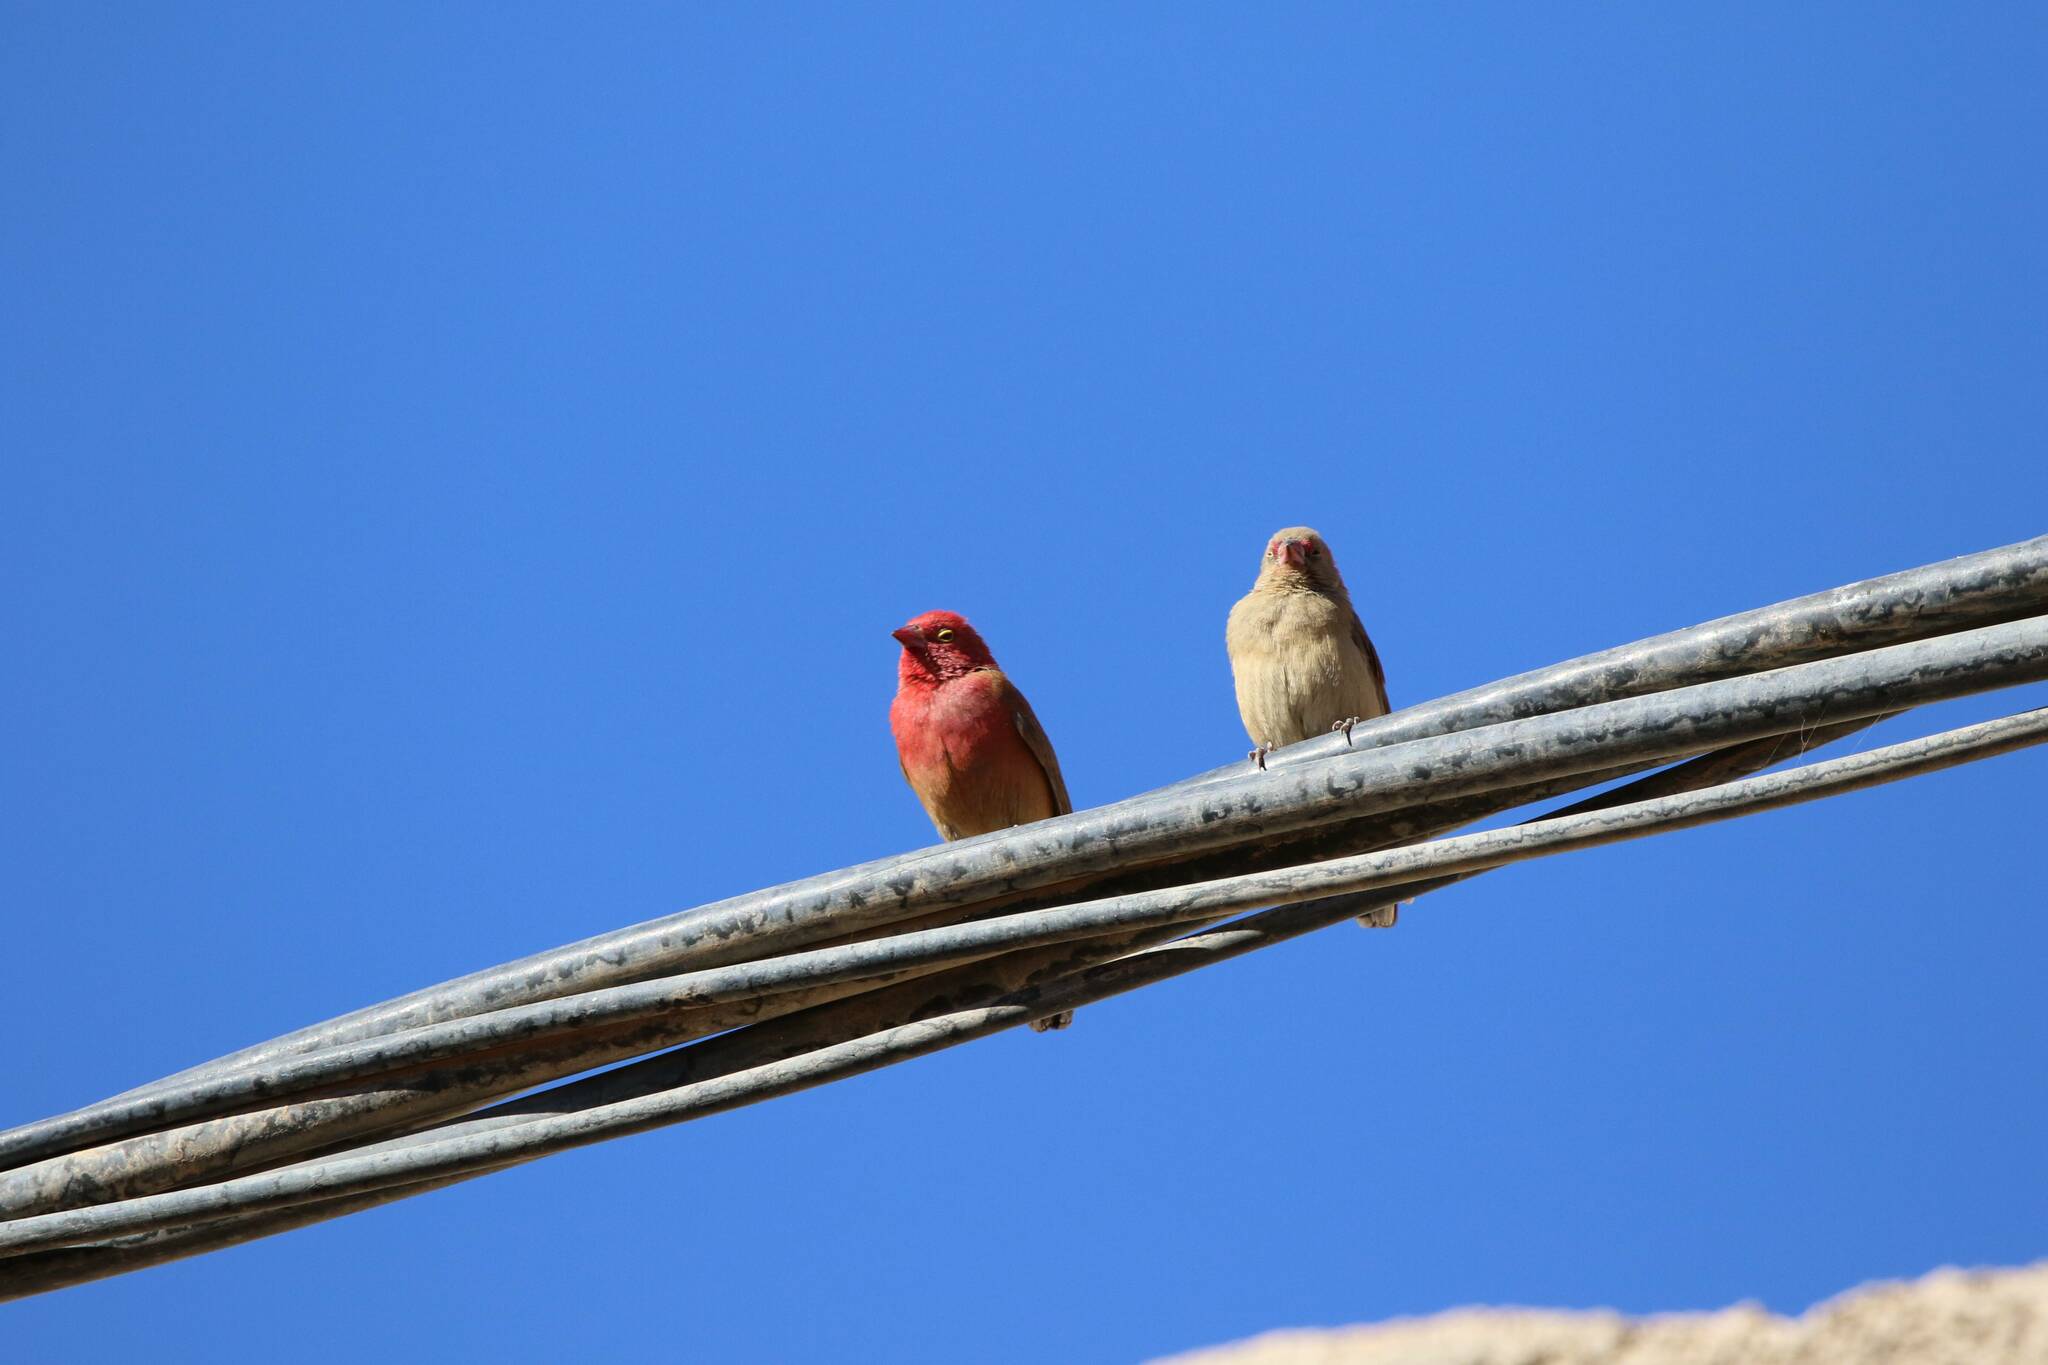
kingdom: Animalia
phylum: Chordata
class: Aves
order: Passeriformes
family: Estrildidae
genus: Lagonosticta
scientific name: Lagonosticta senegala
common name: Red-billed firefinch
